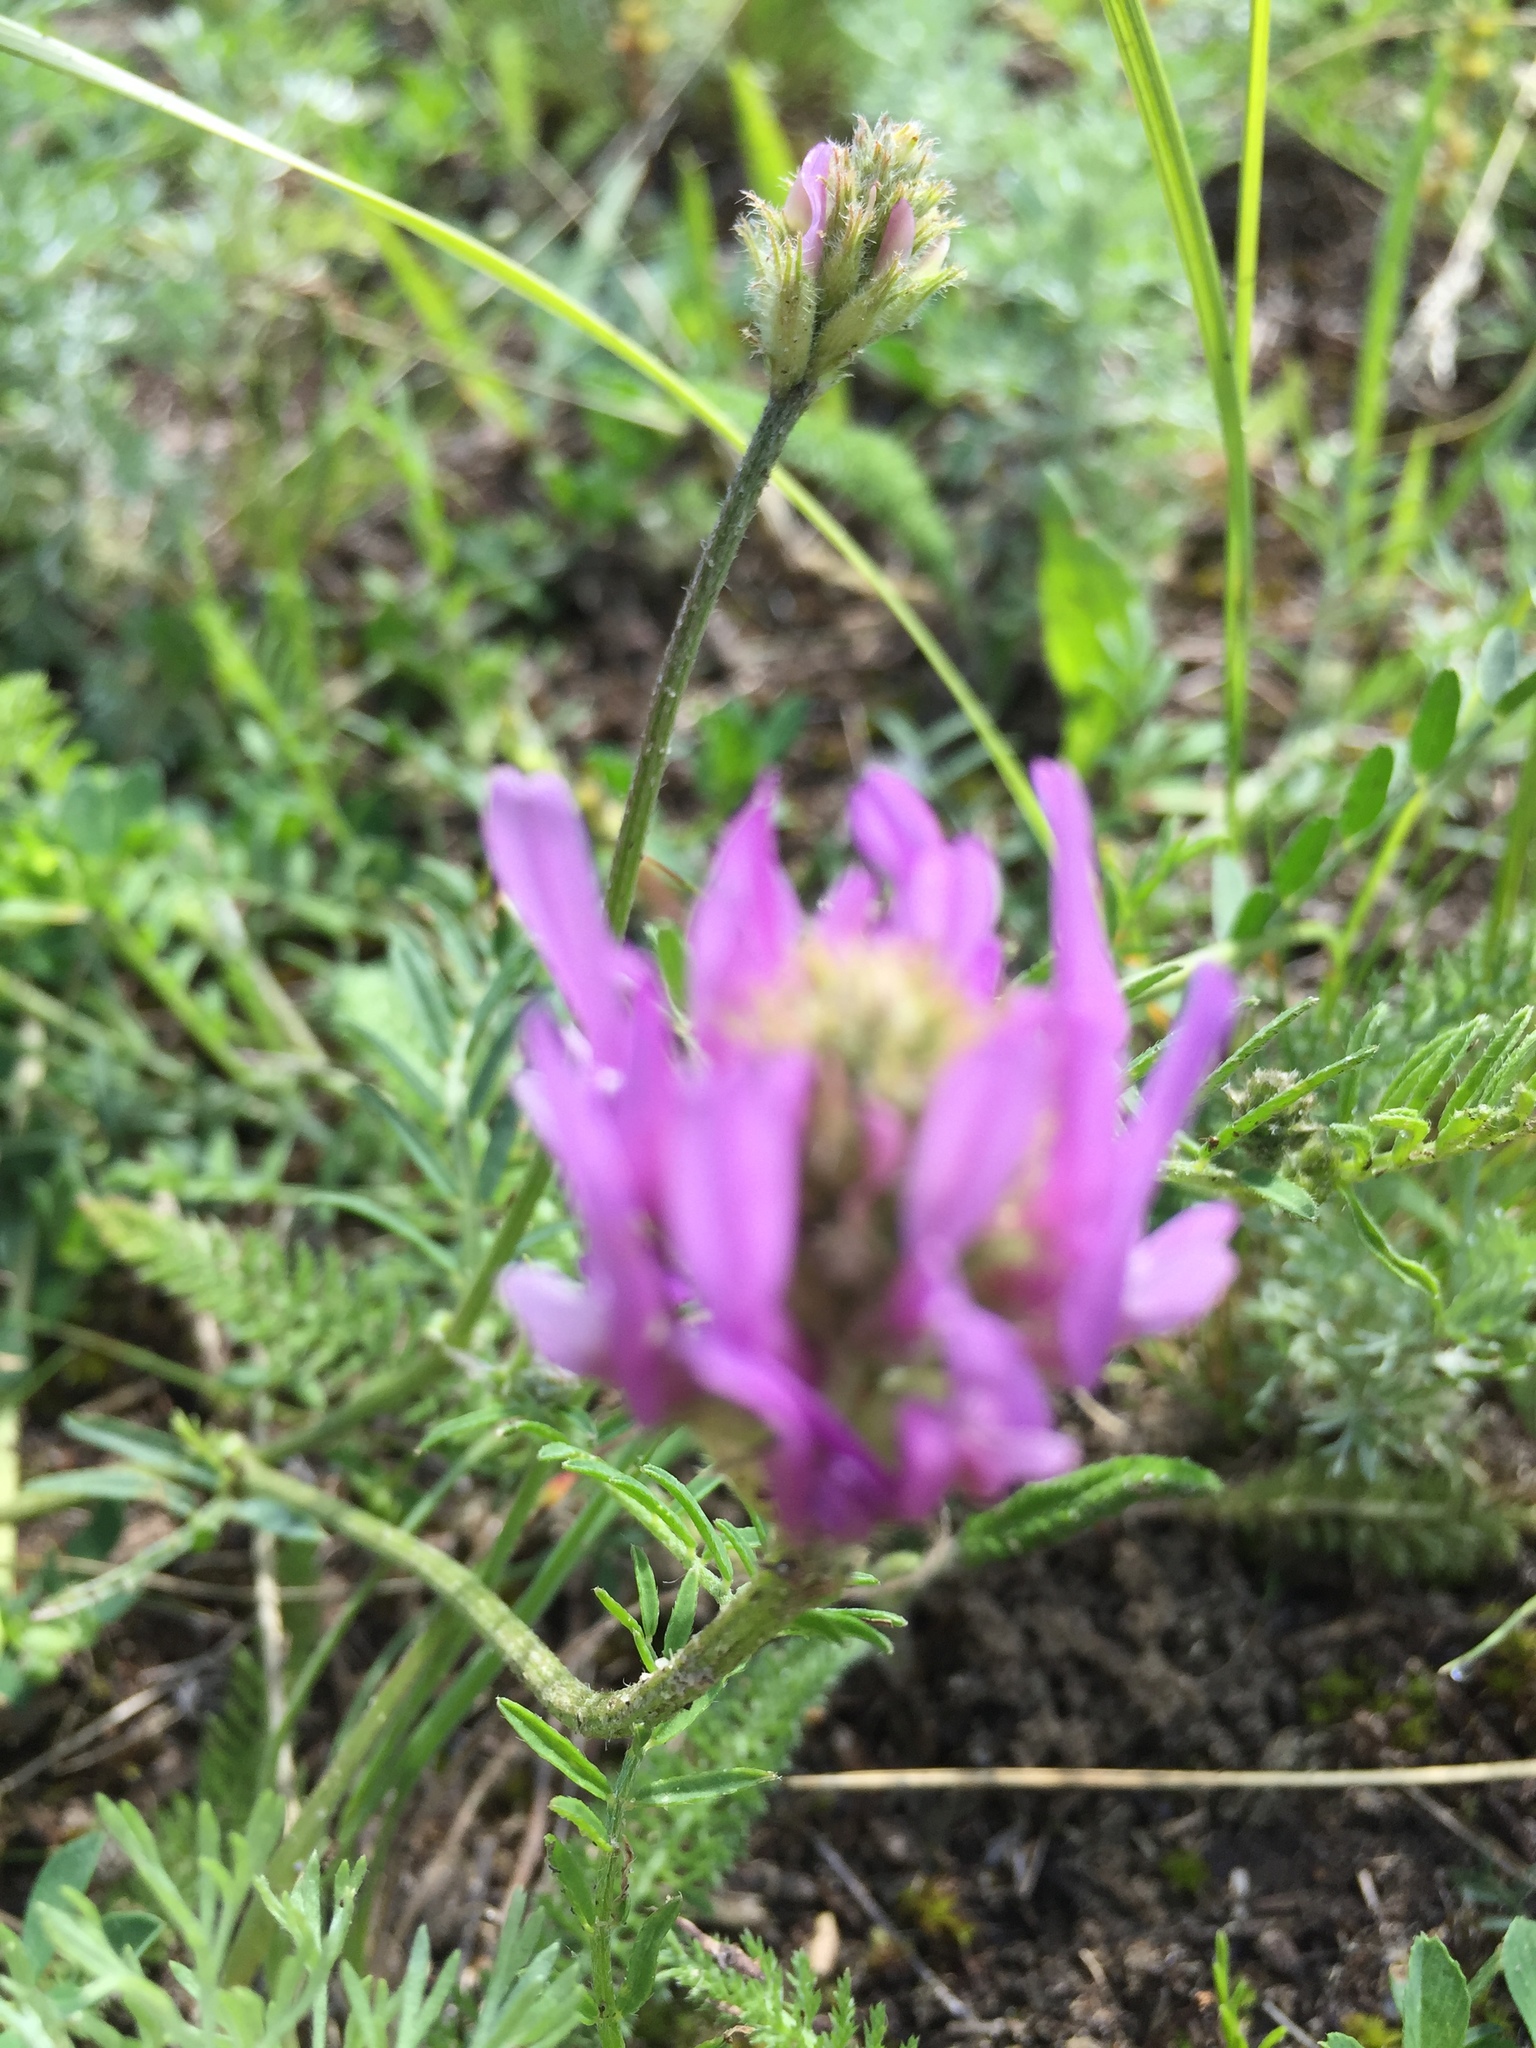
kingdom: Plantae
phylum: Tracheophyta
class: Magnoliopsida
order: Fabales
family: Fabaceae
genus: Astragalus
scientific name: Astragalus onobrychis
